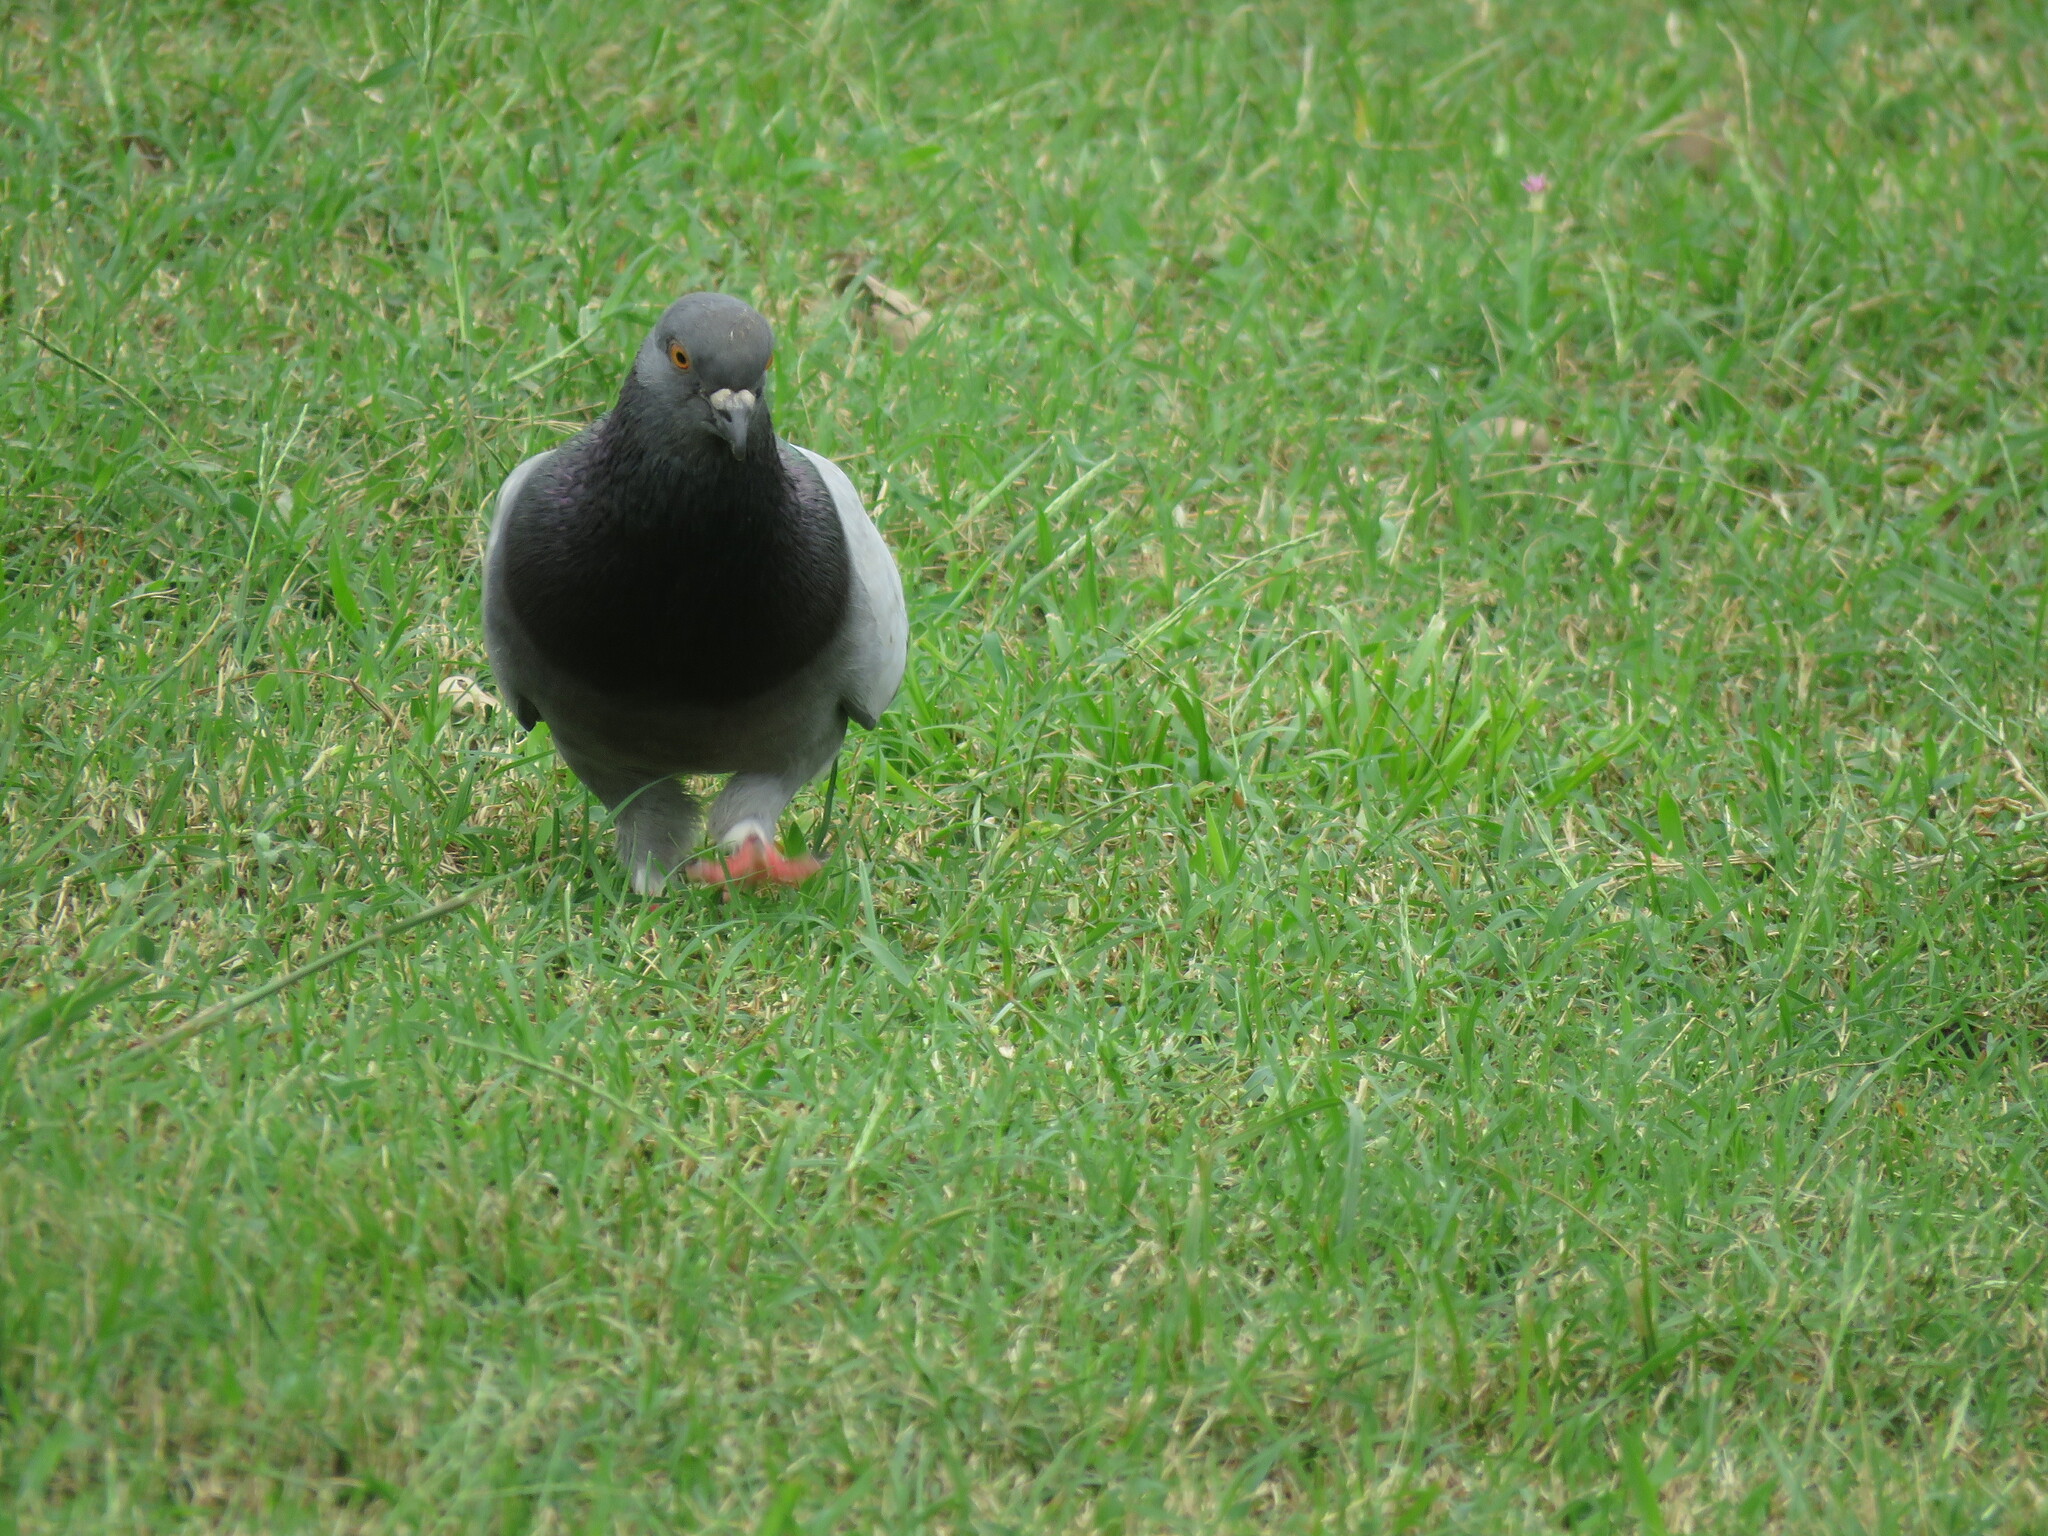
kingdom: Animalia
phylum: Chordata
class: Aves
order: Columbiformes
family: Columbidae
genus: Columba
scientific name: Columba livia
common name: Rock pigeon
